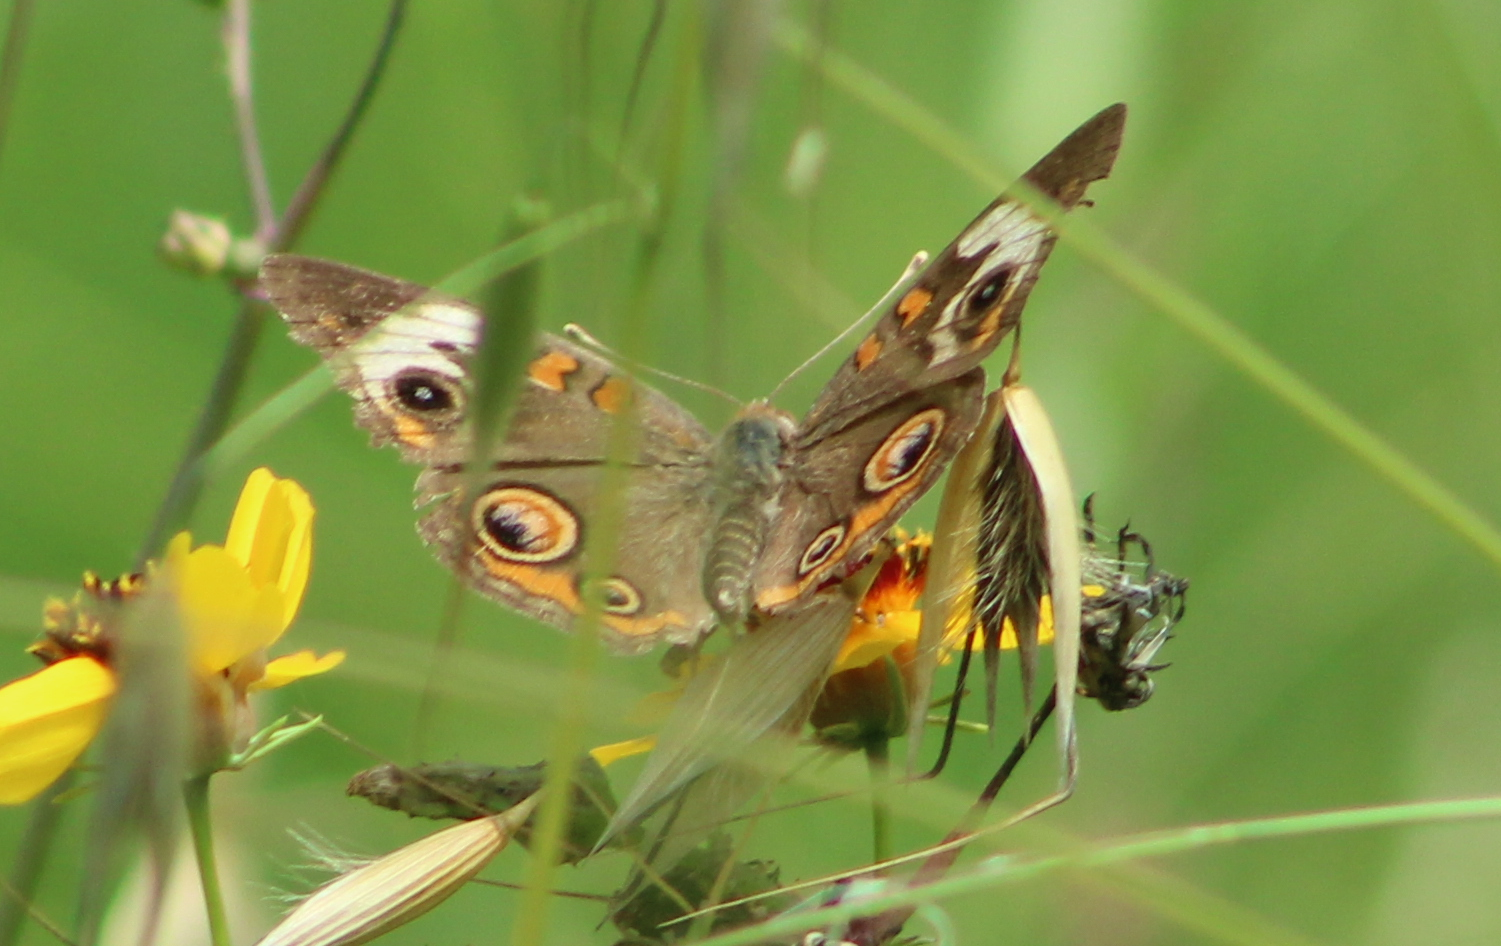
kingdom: Animalia
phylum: Arthropoda
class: Insecta
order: Lepidoptera
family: Nymphalidae
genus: Junonia
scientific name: Junonia coenia
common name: Common buckeye
